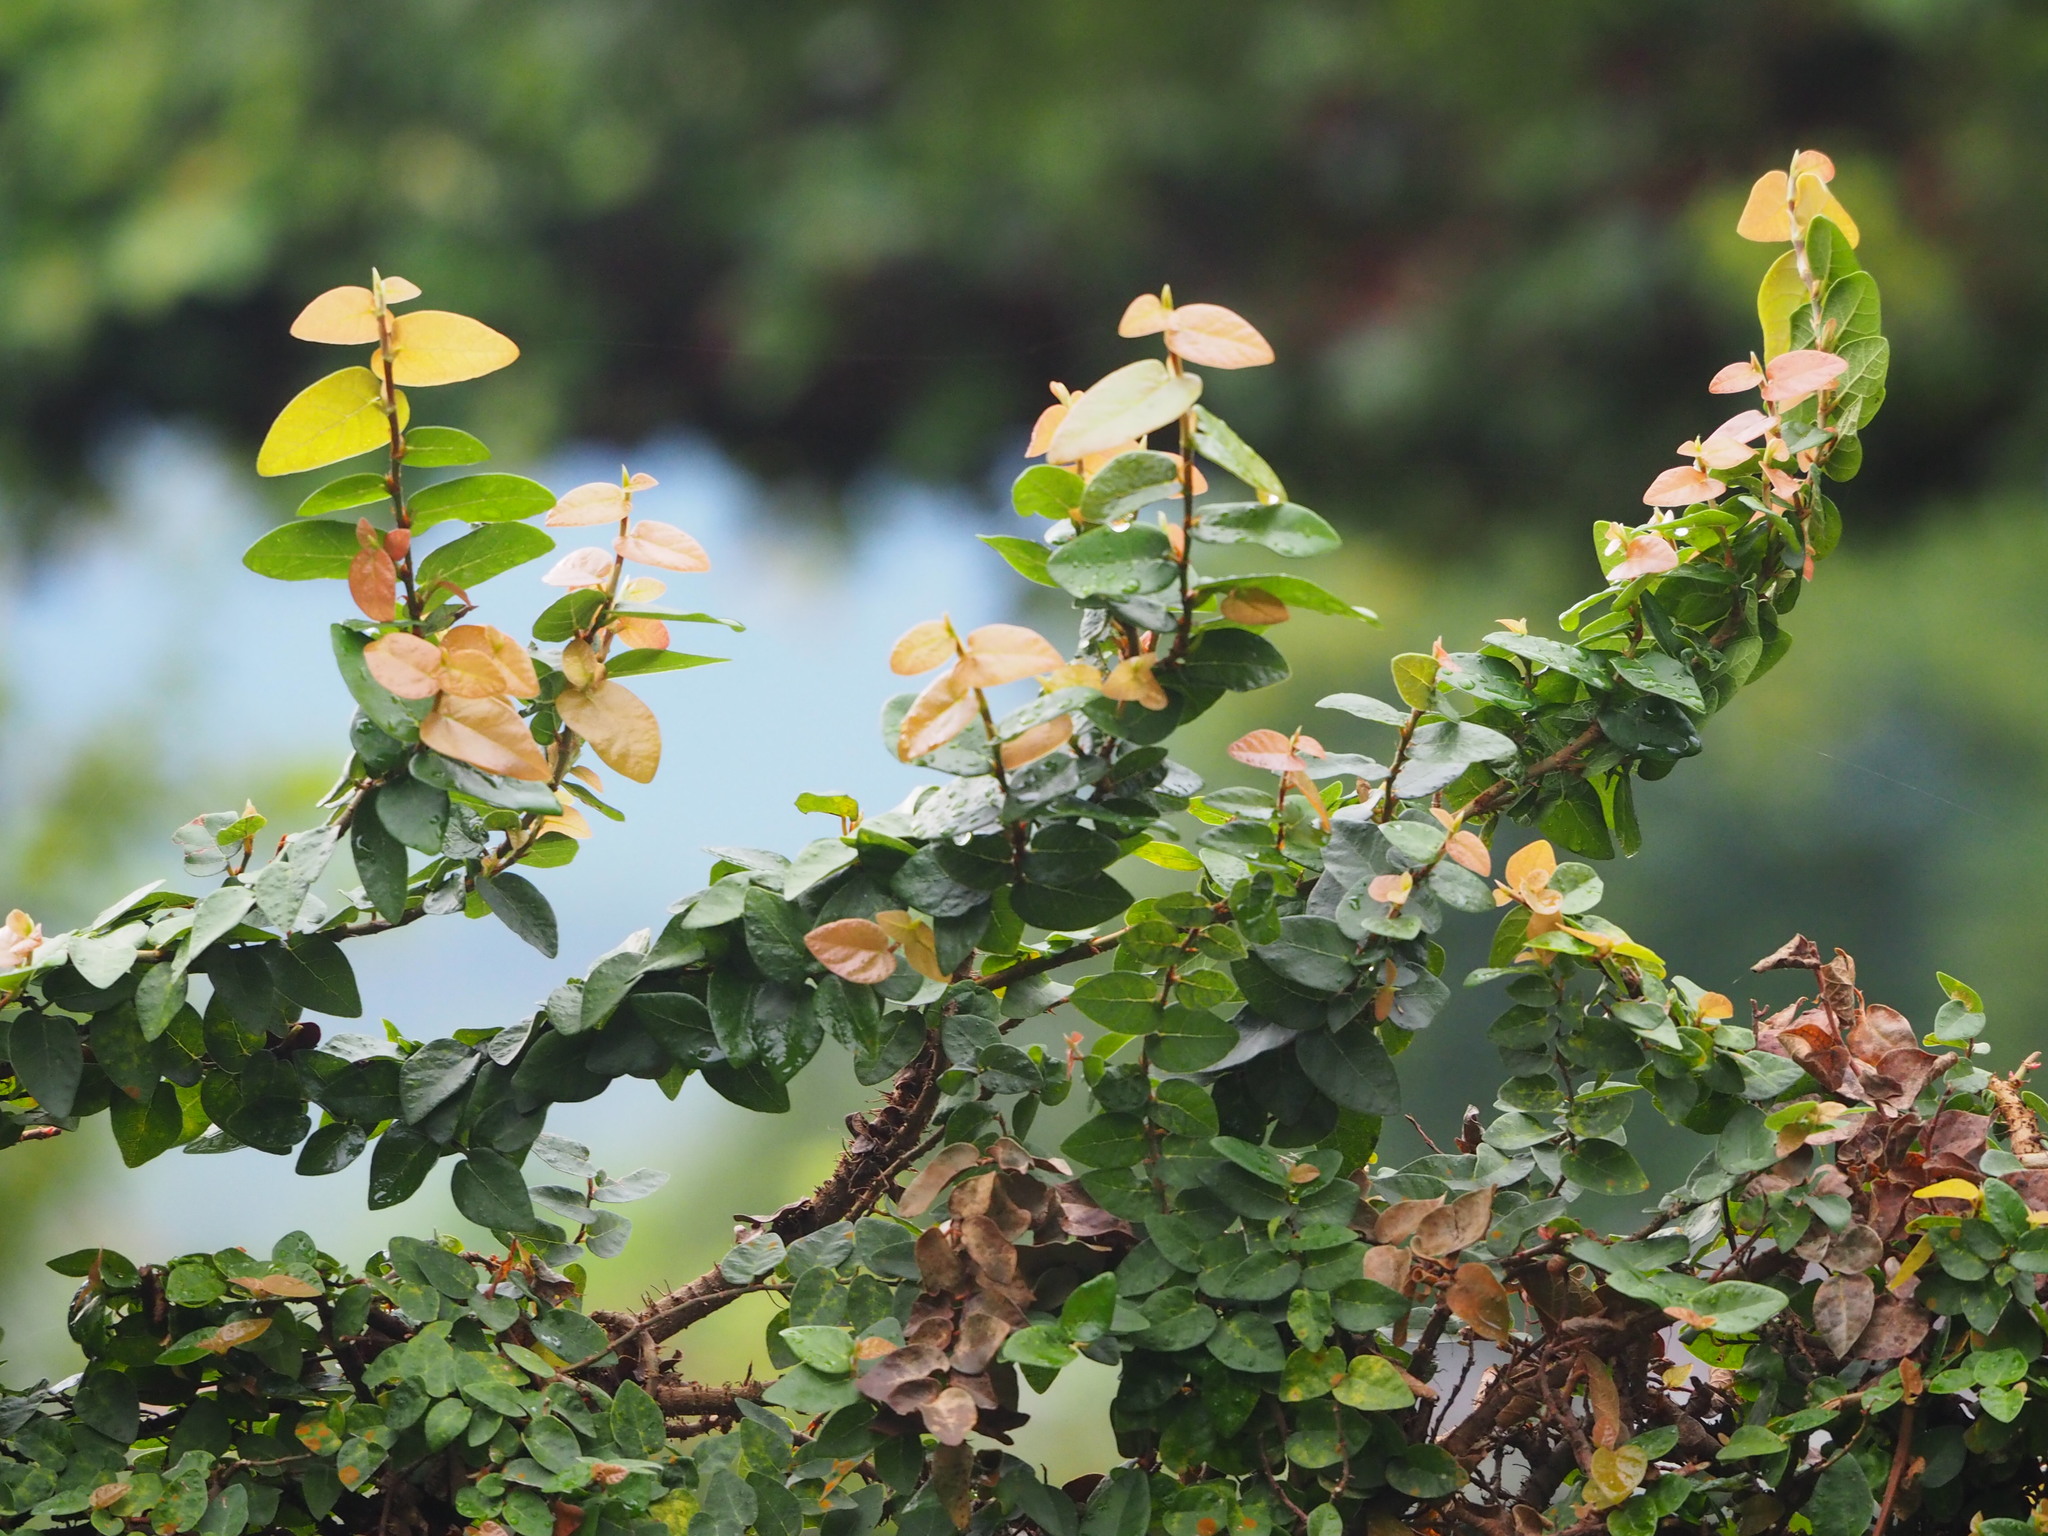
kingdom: Plantae
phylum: Tracheophyta
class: Magnoliopsida
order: Rosales
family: Moraceae
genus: Ficus
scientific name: Ficus pumila
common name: Climbingfig
